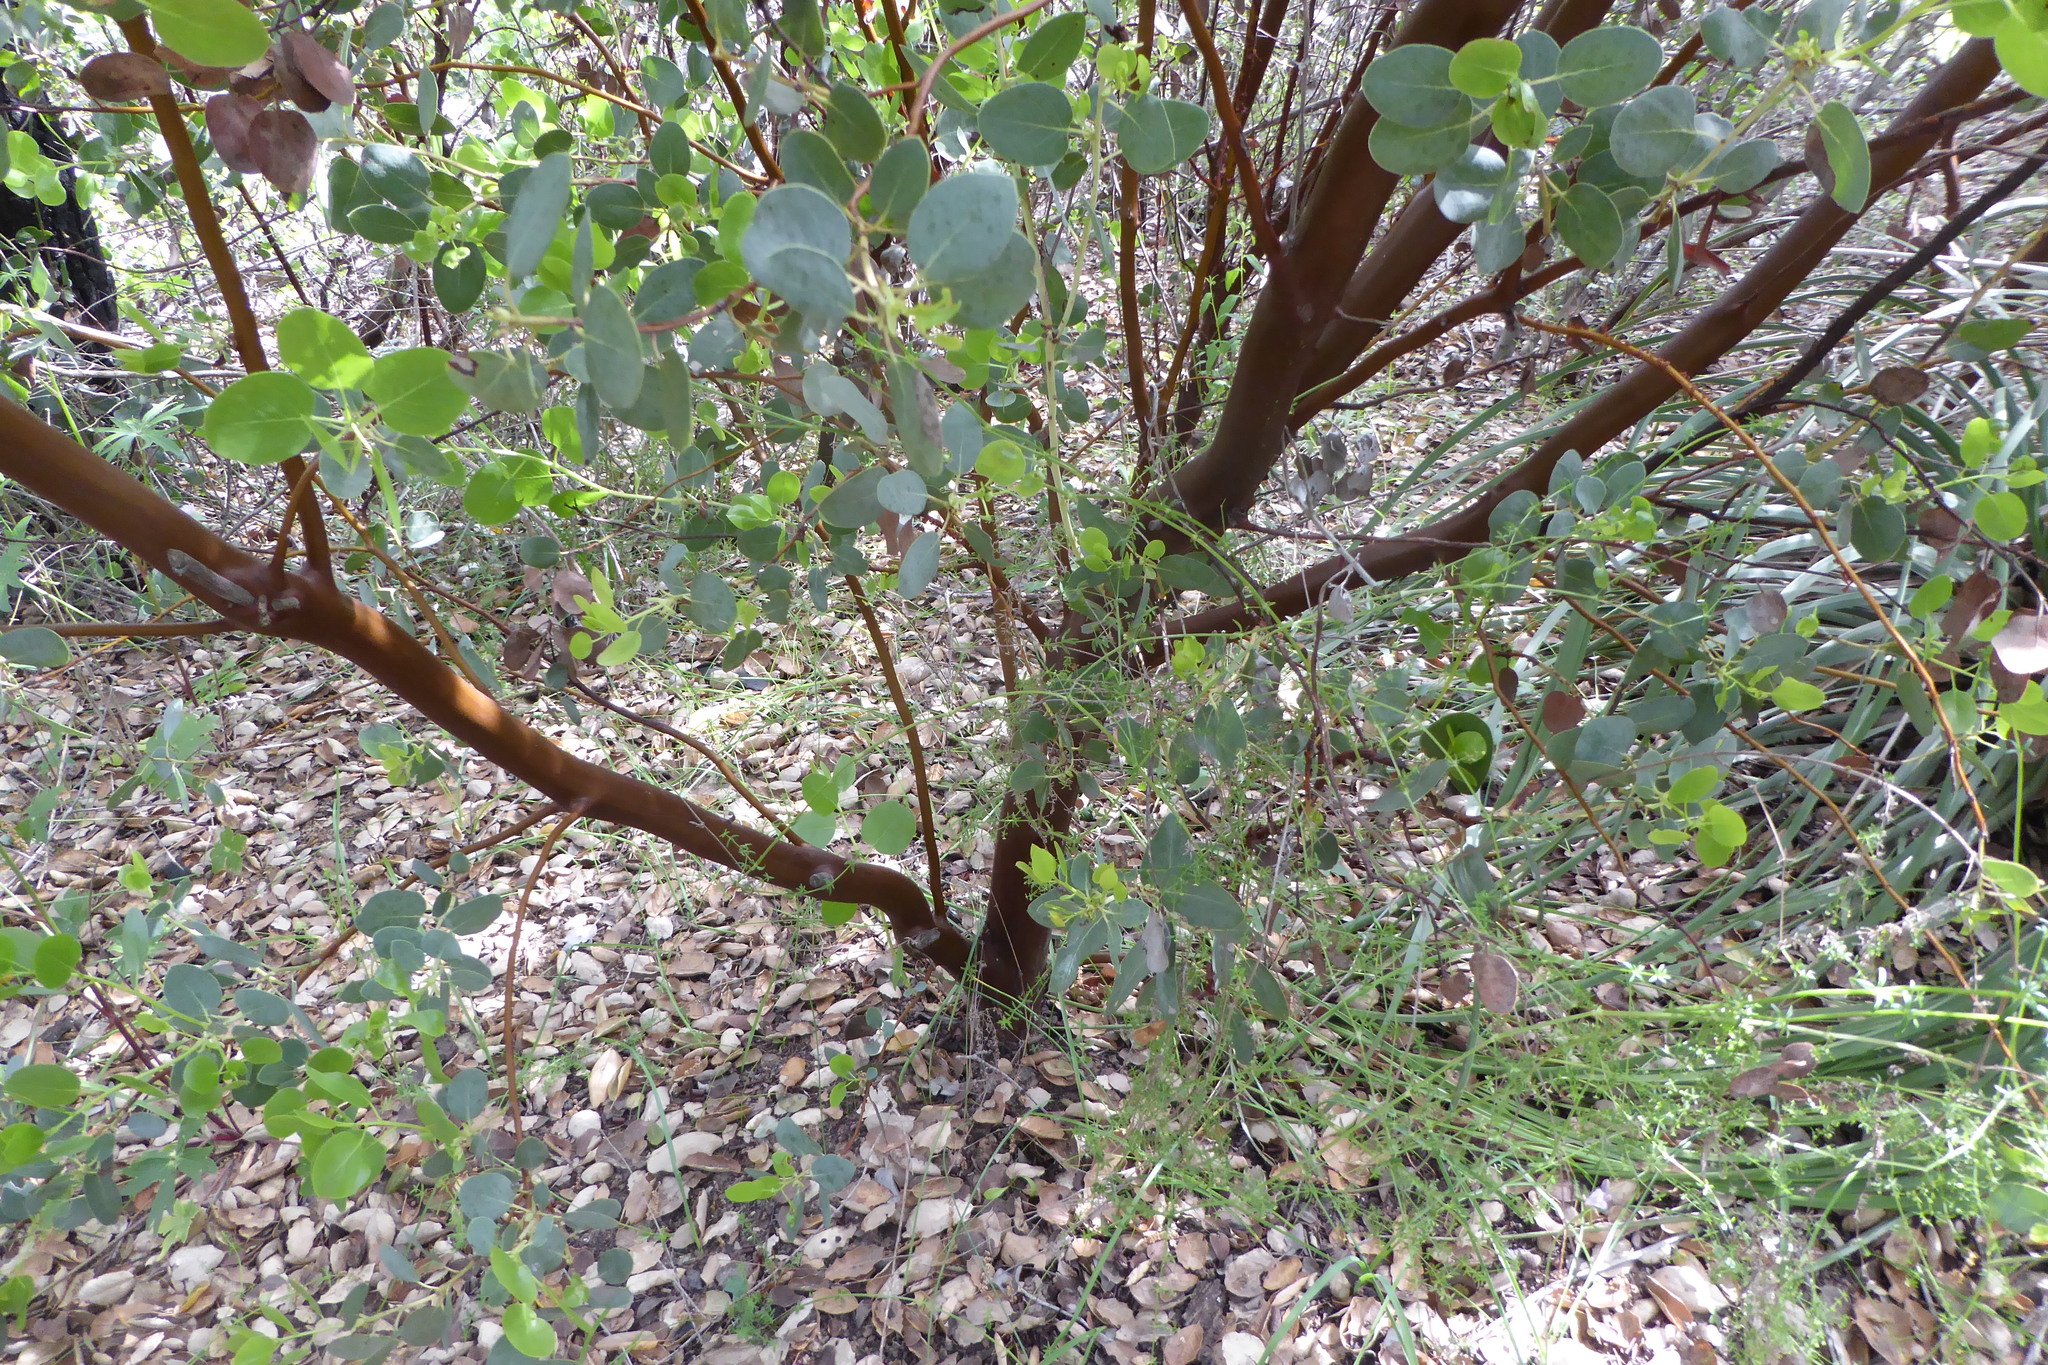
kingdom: Plantae
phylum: Tracheophyta
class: Magnoliopsida
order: Ericales
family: Ericaceae
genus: Arctostaphylos
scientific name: Arctostaphylos glauca
